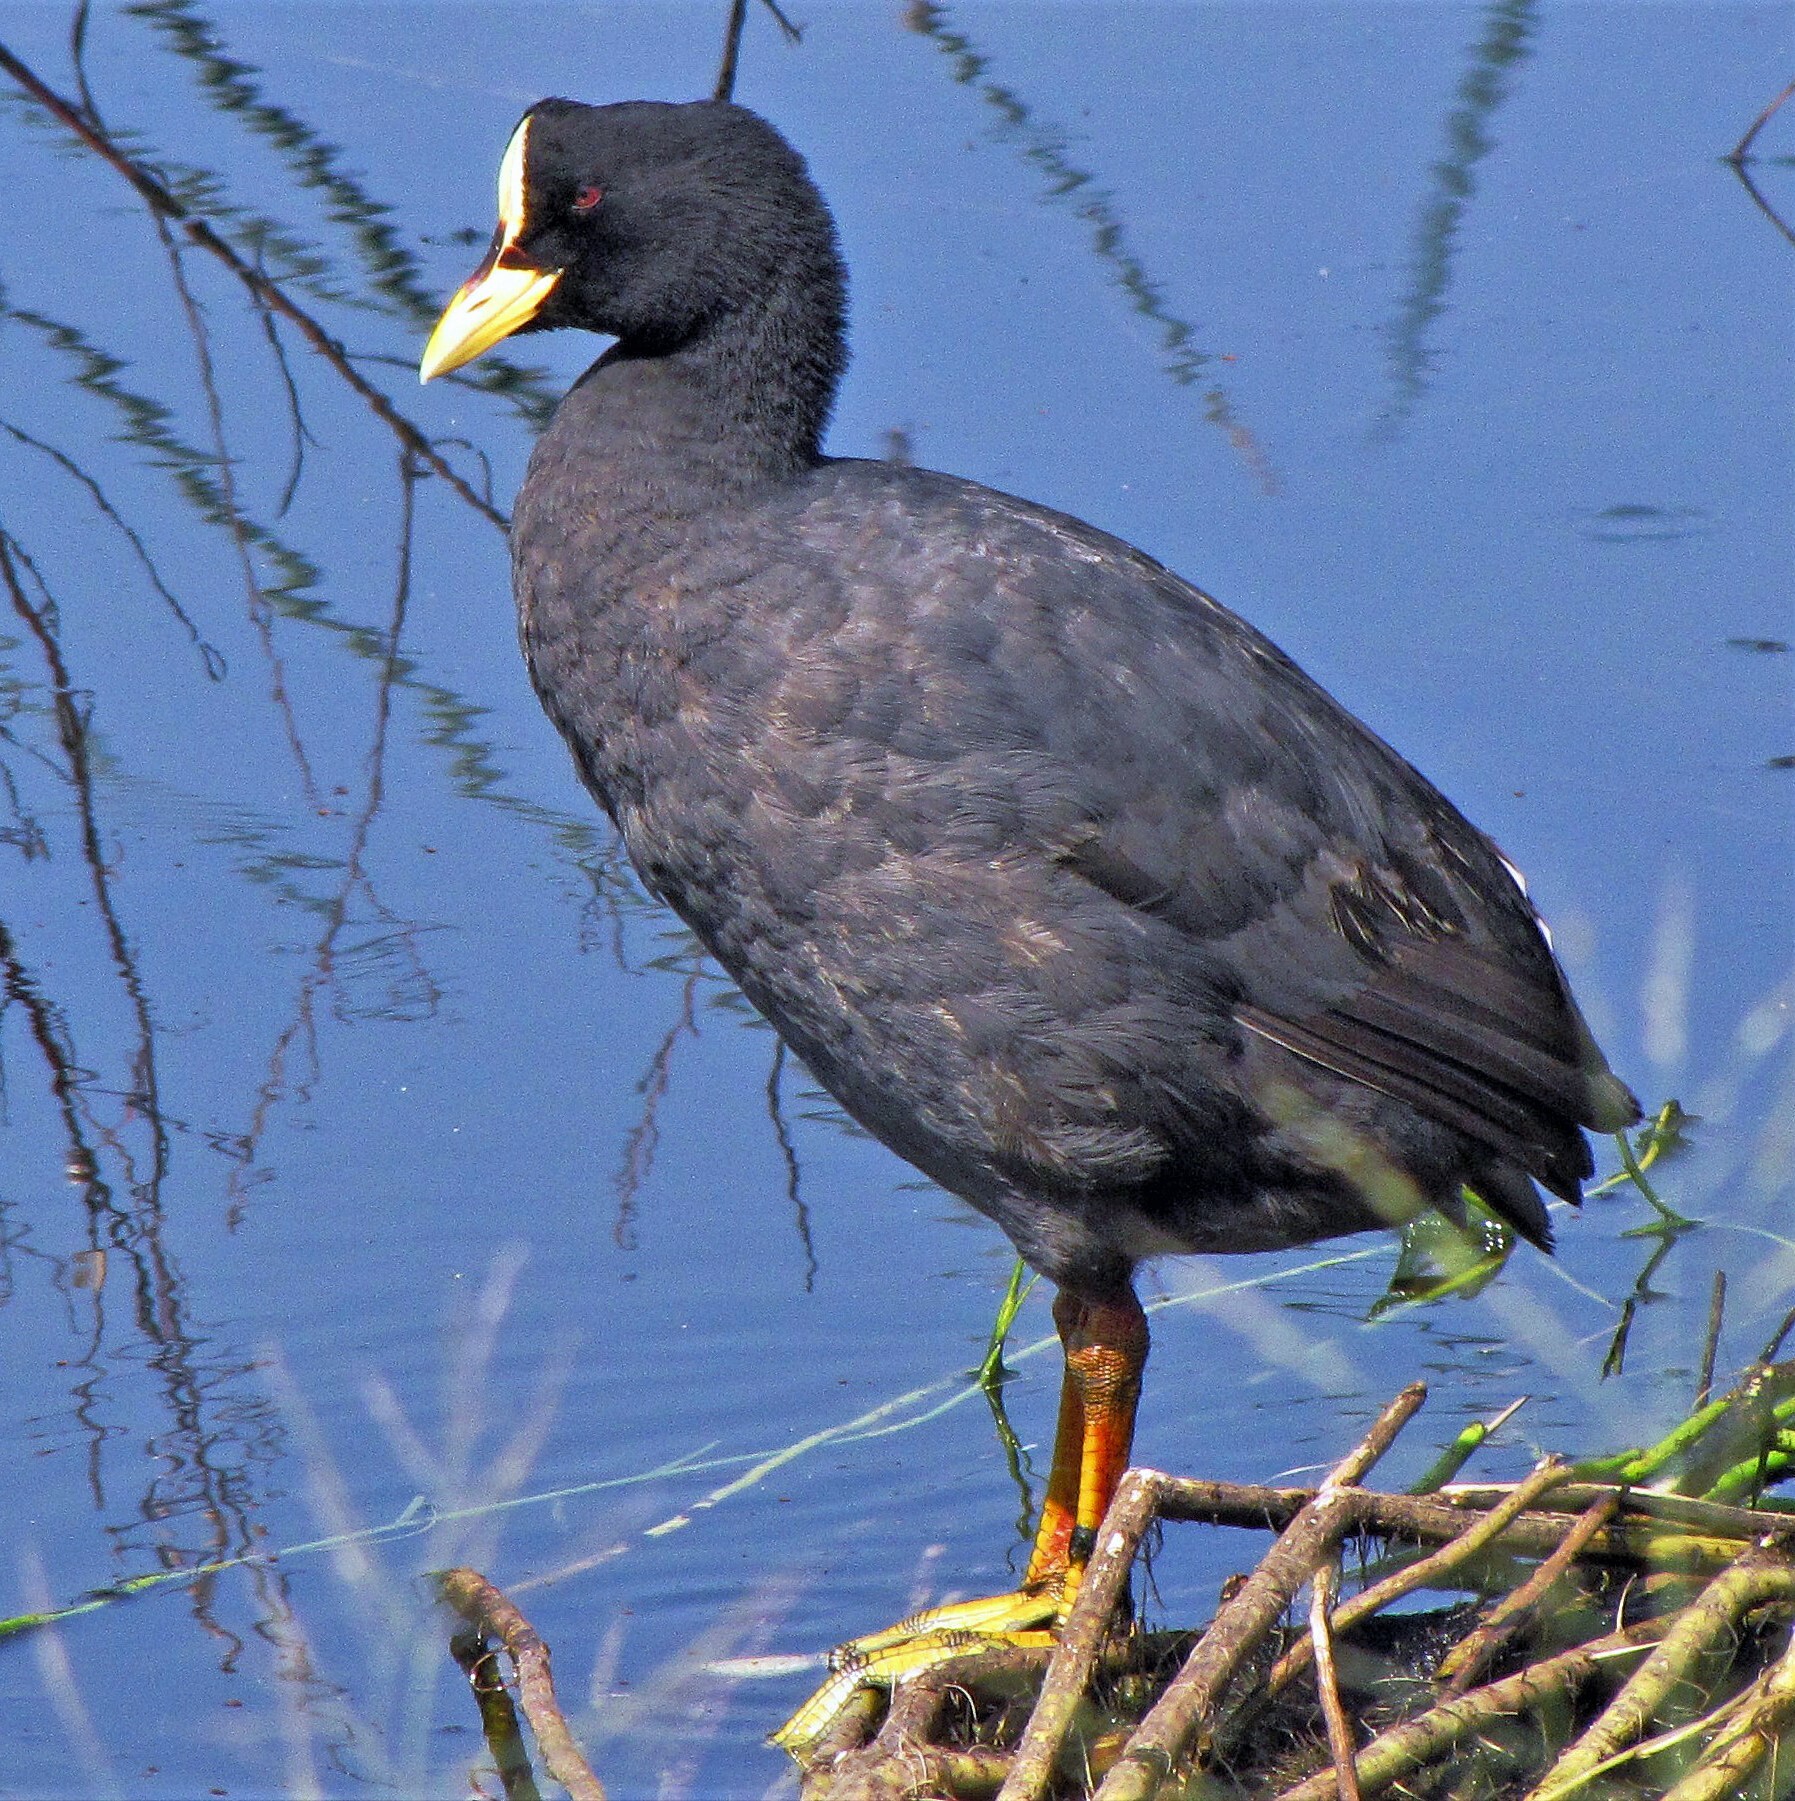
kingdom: Animalia
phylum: Chordata
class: Aves
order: Gruiformes
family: Rallidae
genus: Fulica
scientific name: Fulica armillata
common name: Red-gartered coot
